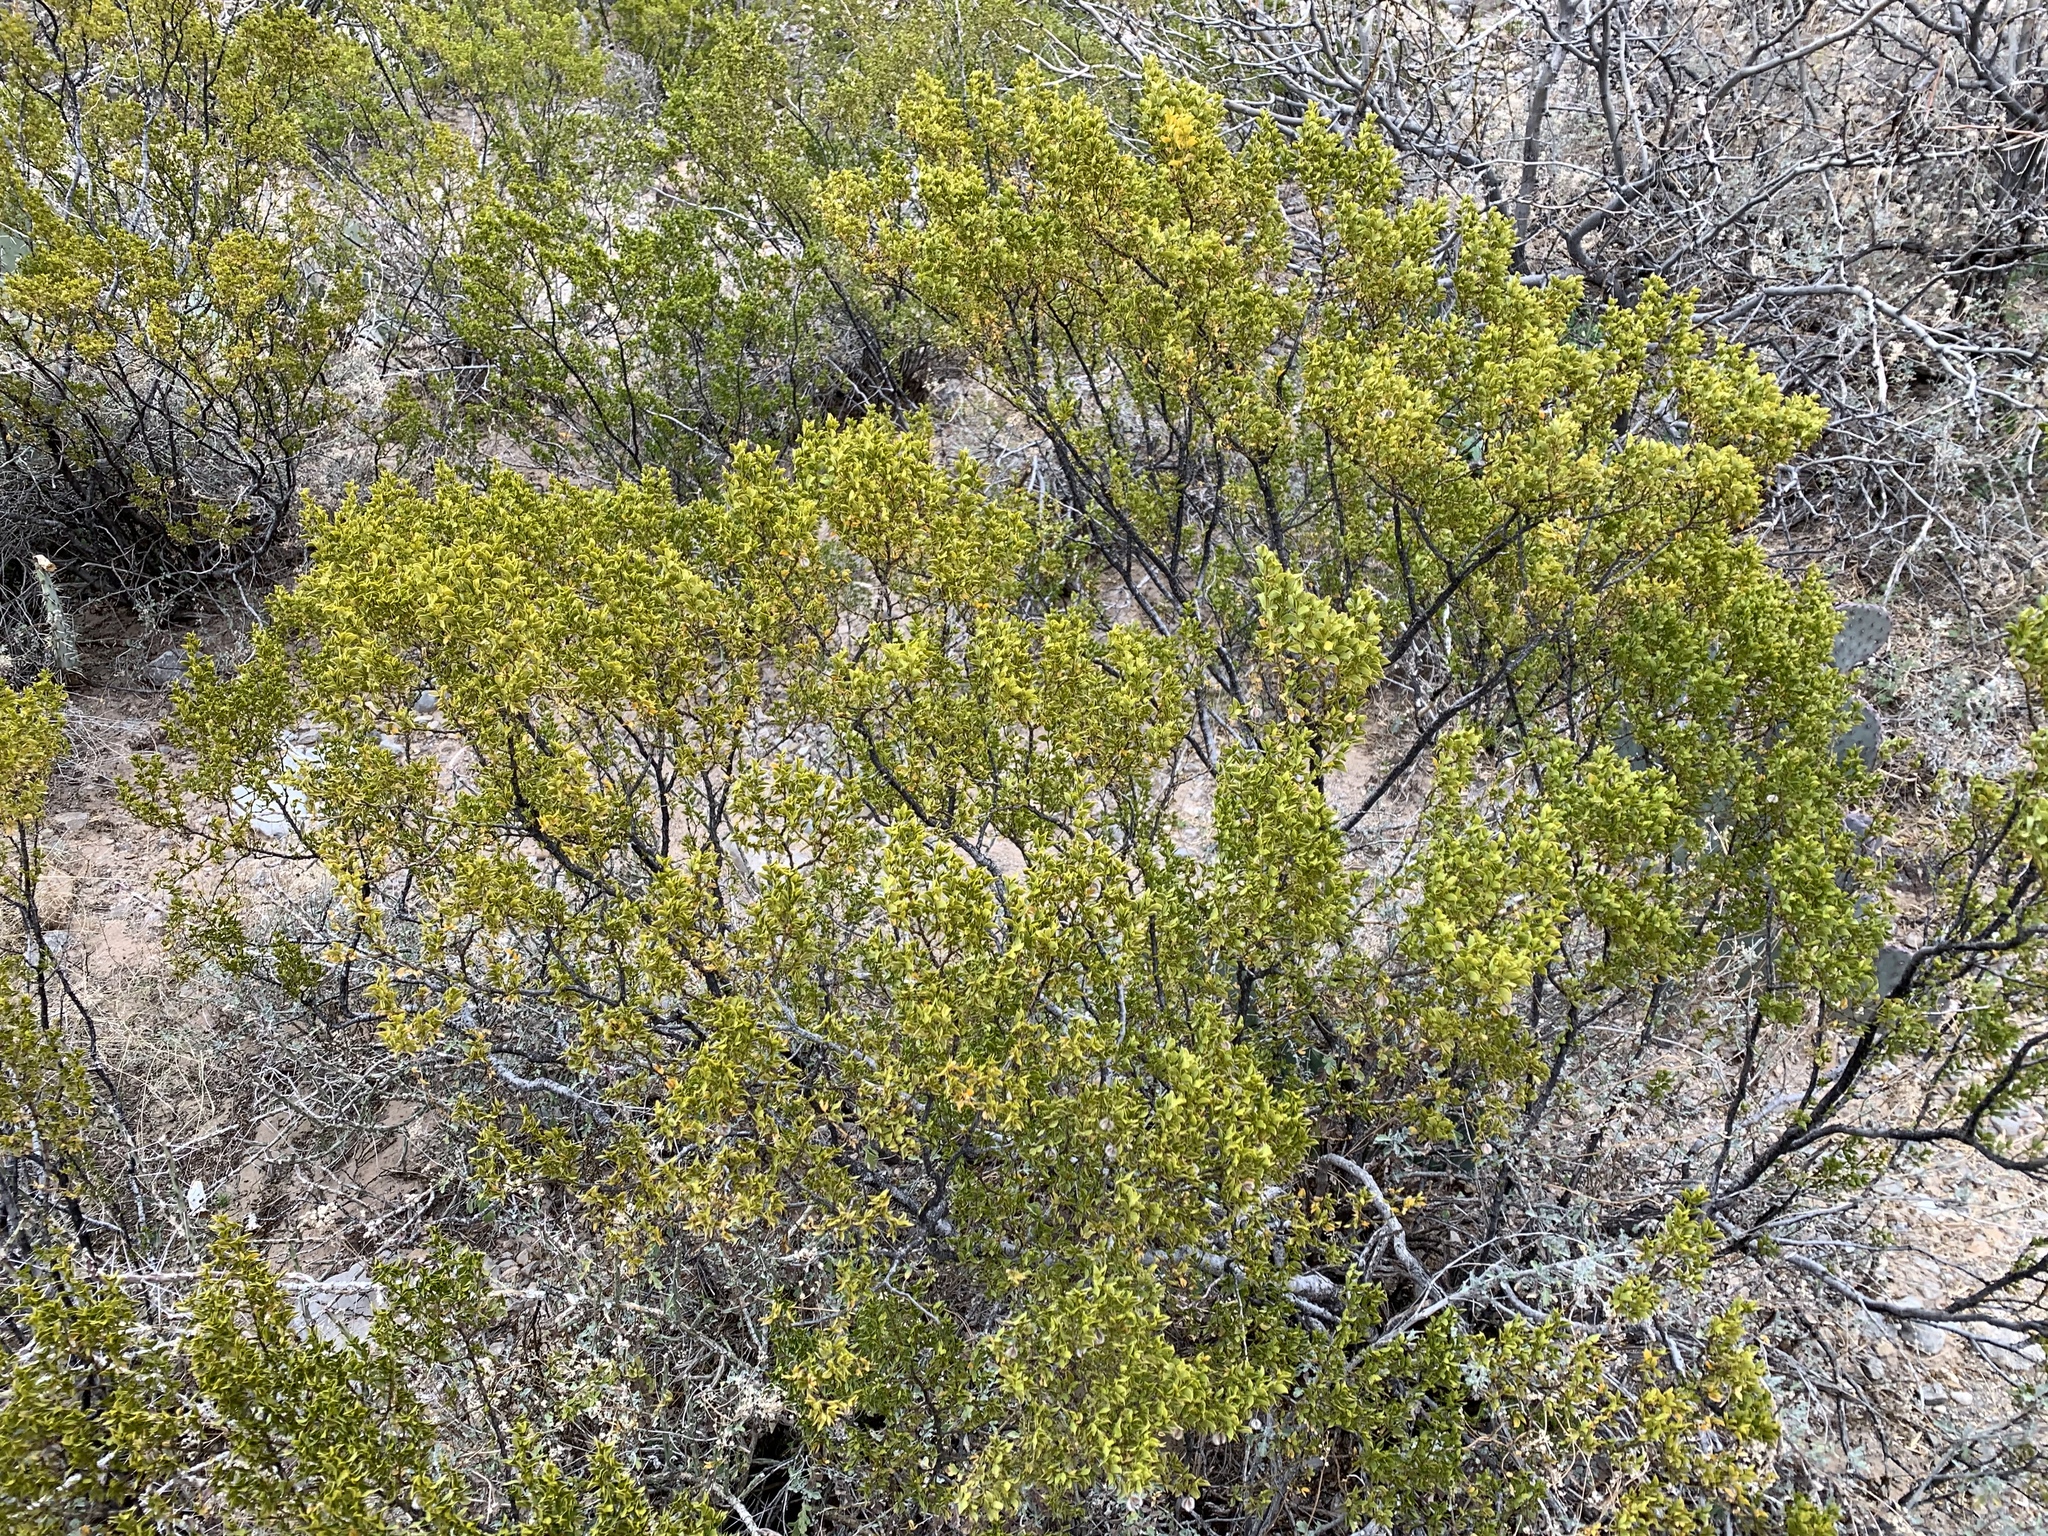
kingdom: Plantae
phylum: Tracheophyta
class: Magnoliopsida
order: Zygophyllales
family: Zygophyllaceae
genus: Larrea
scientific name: Larrea tridentata
